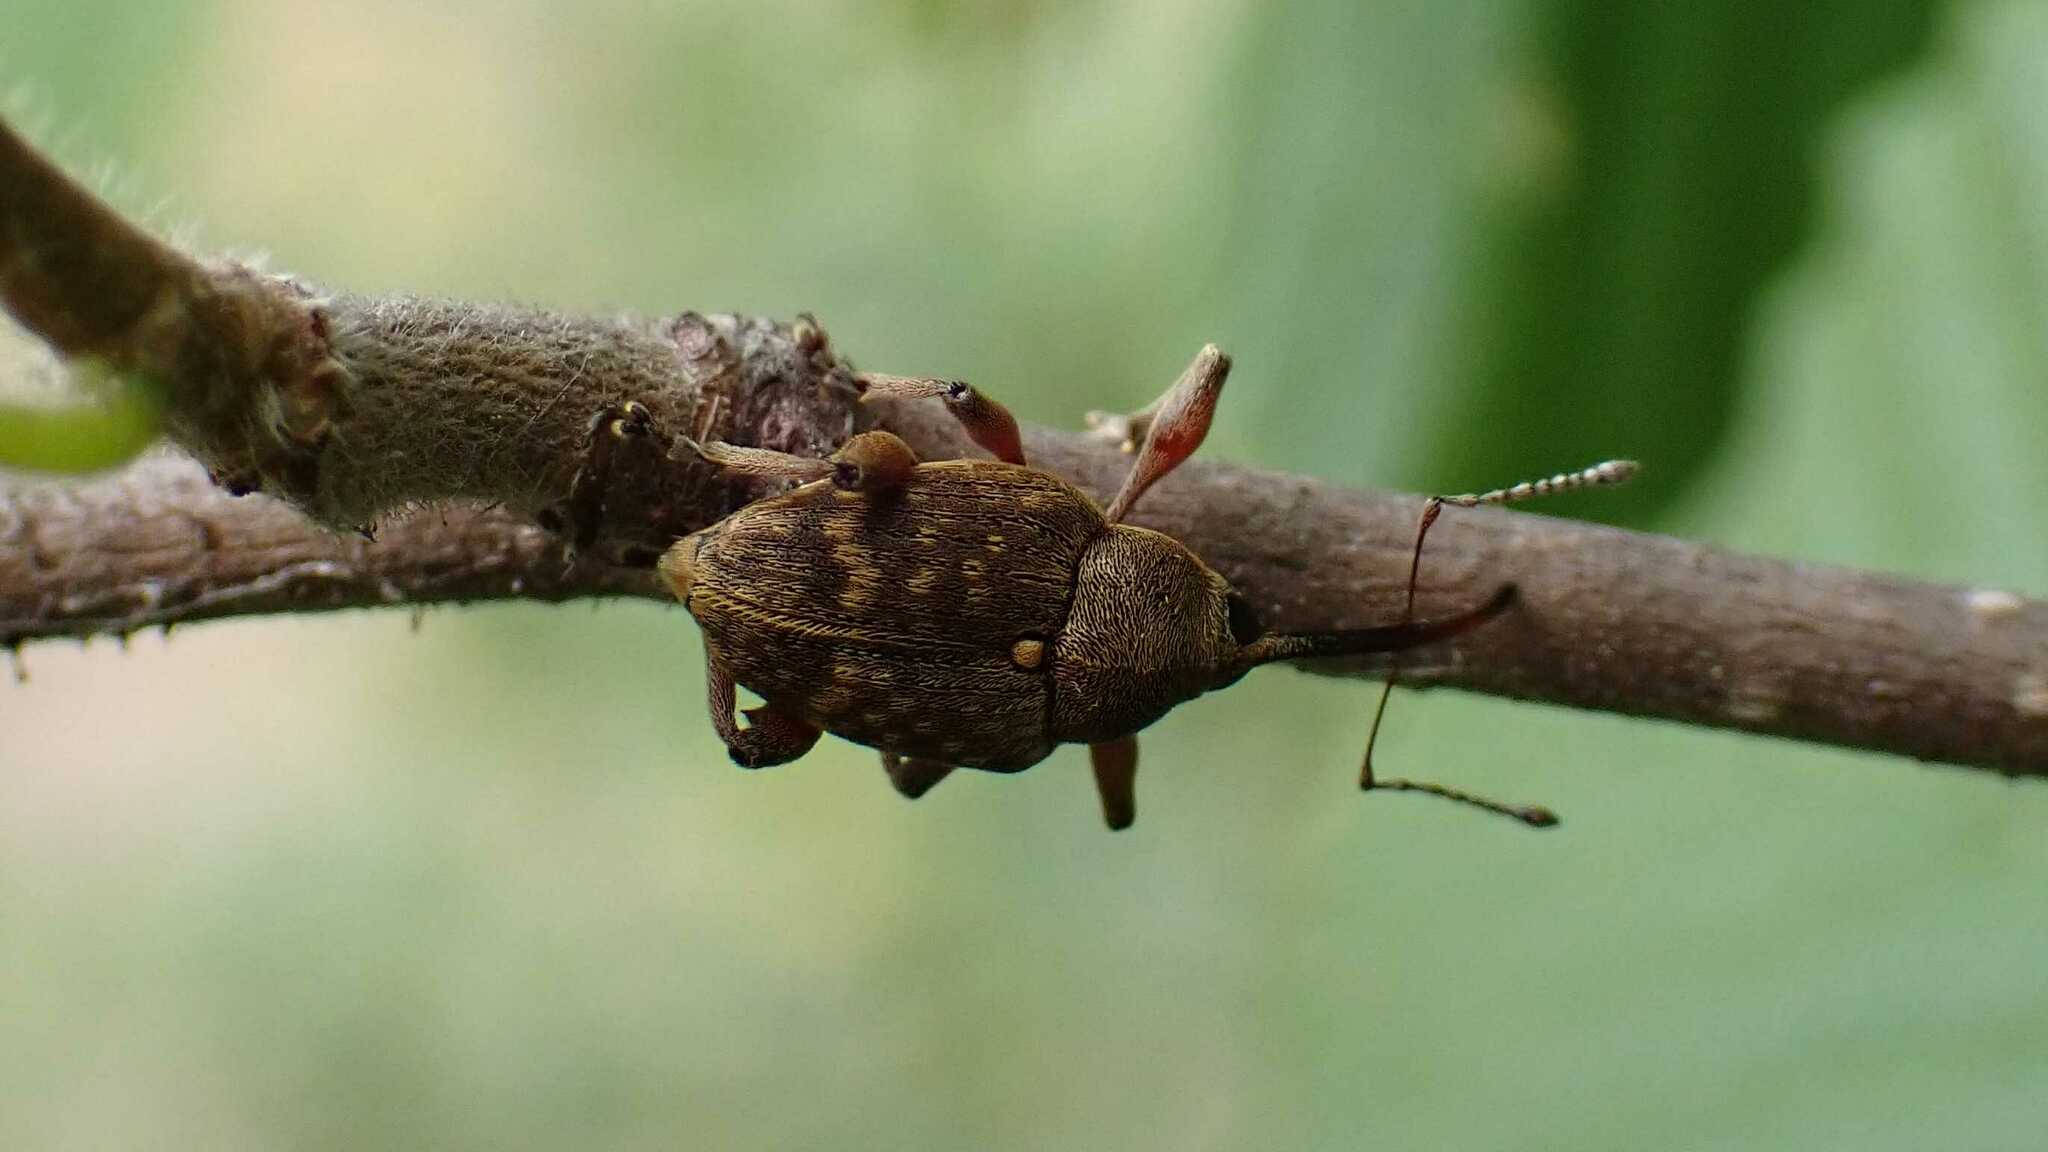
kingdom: Animalia
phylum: Arthropoda
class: Insecta
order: Coleoptera
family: Curculionidae
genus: Curculio
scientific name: Curculio nucum
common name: Nut weevil
